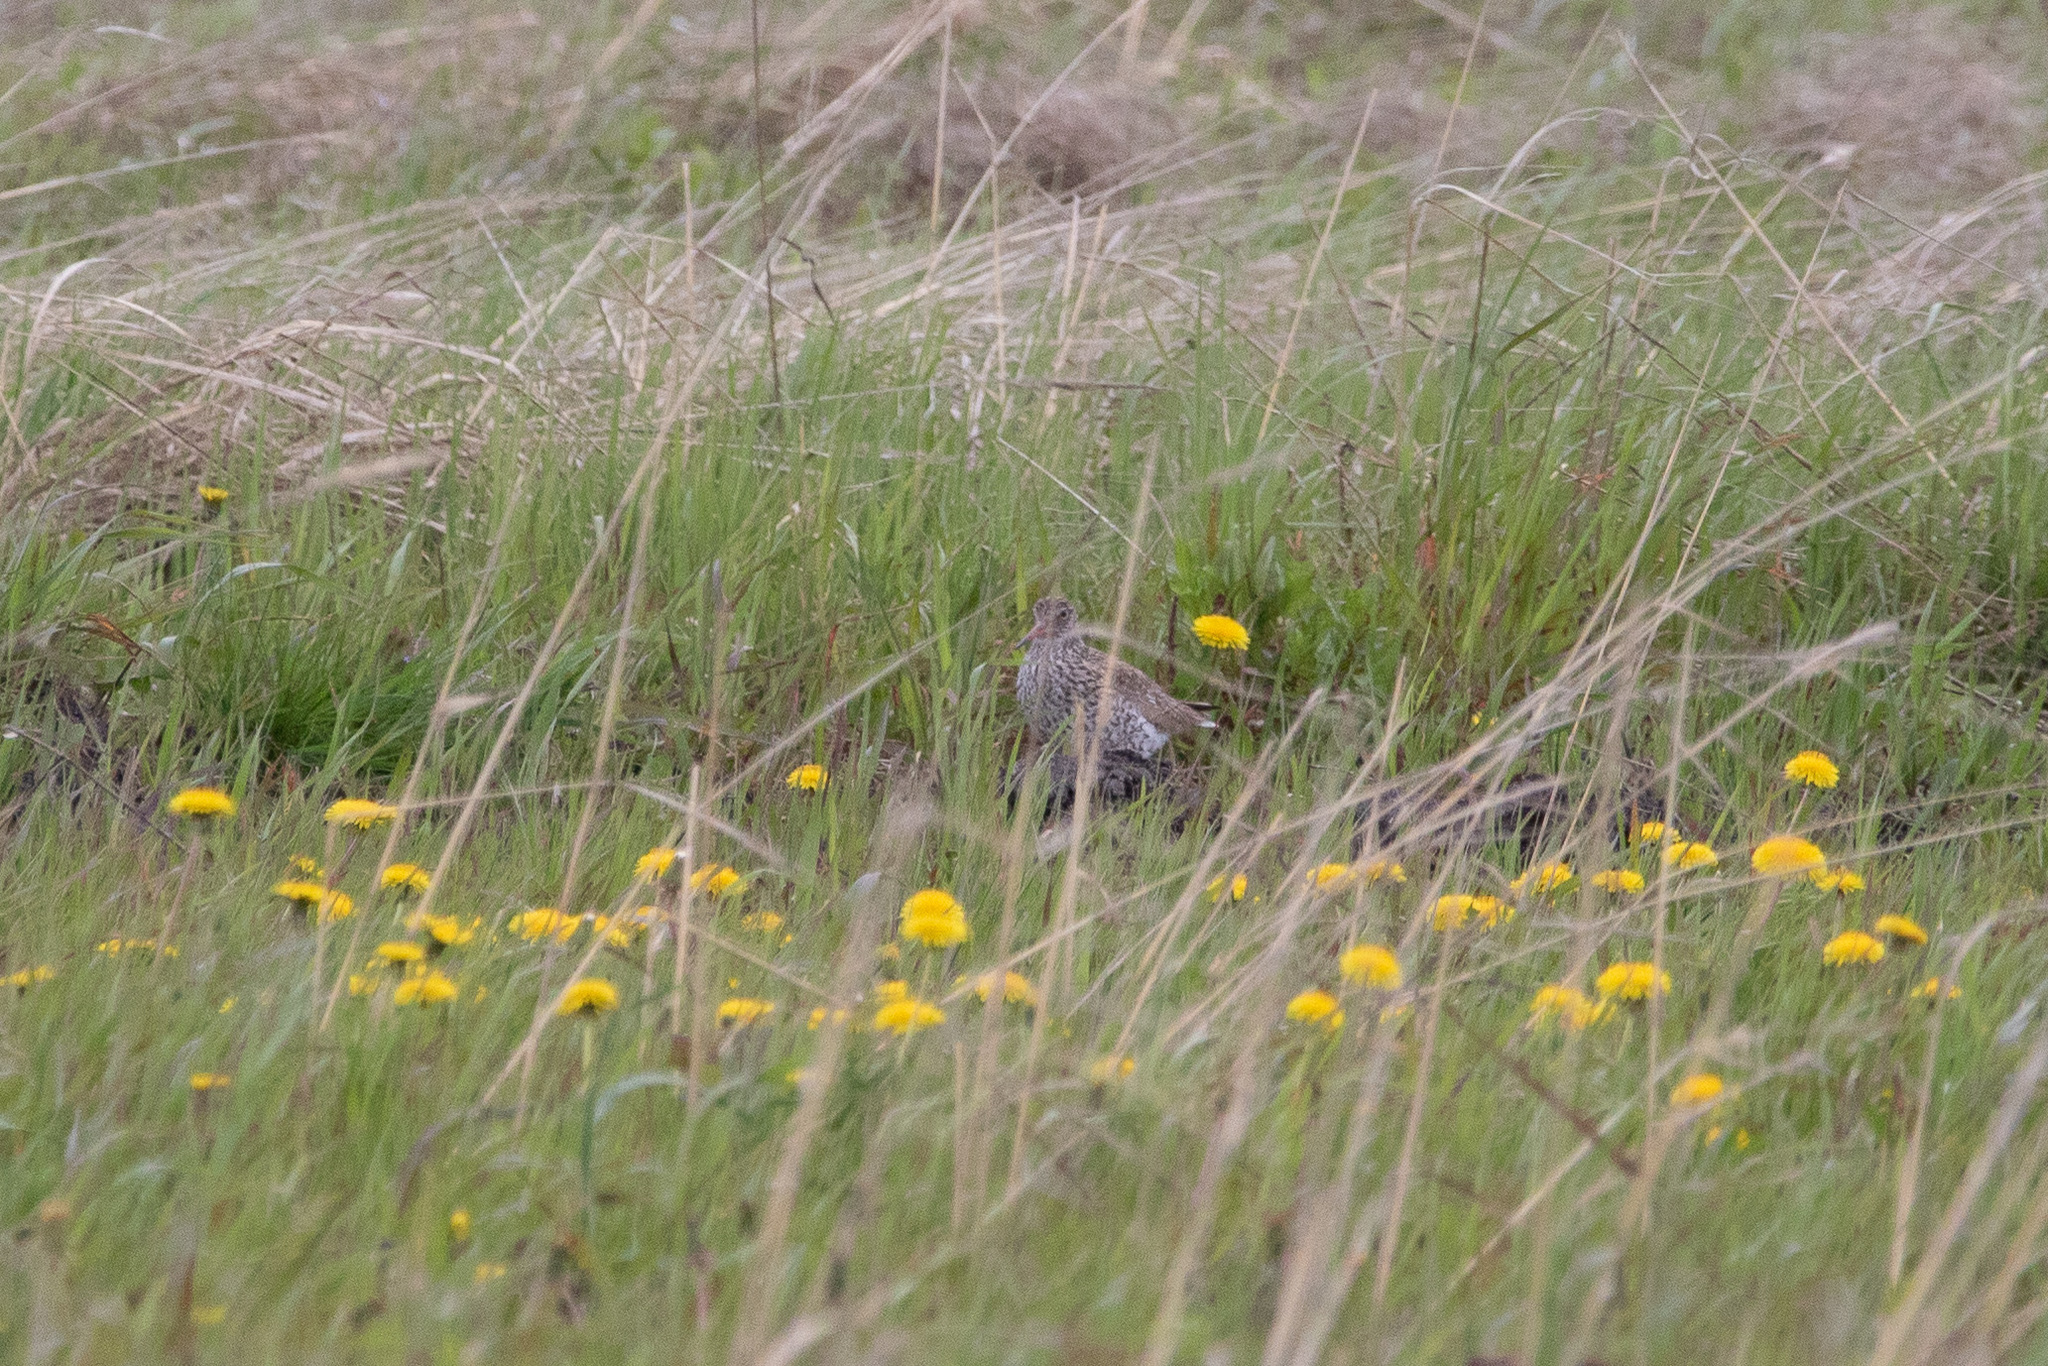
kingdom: Animalia
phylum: Chordata
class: Aves
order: Charadriiformes
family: Scolopacidae
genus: Tringa
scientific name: Tringa totanus
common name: Common redshank
